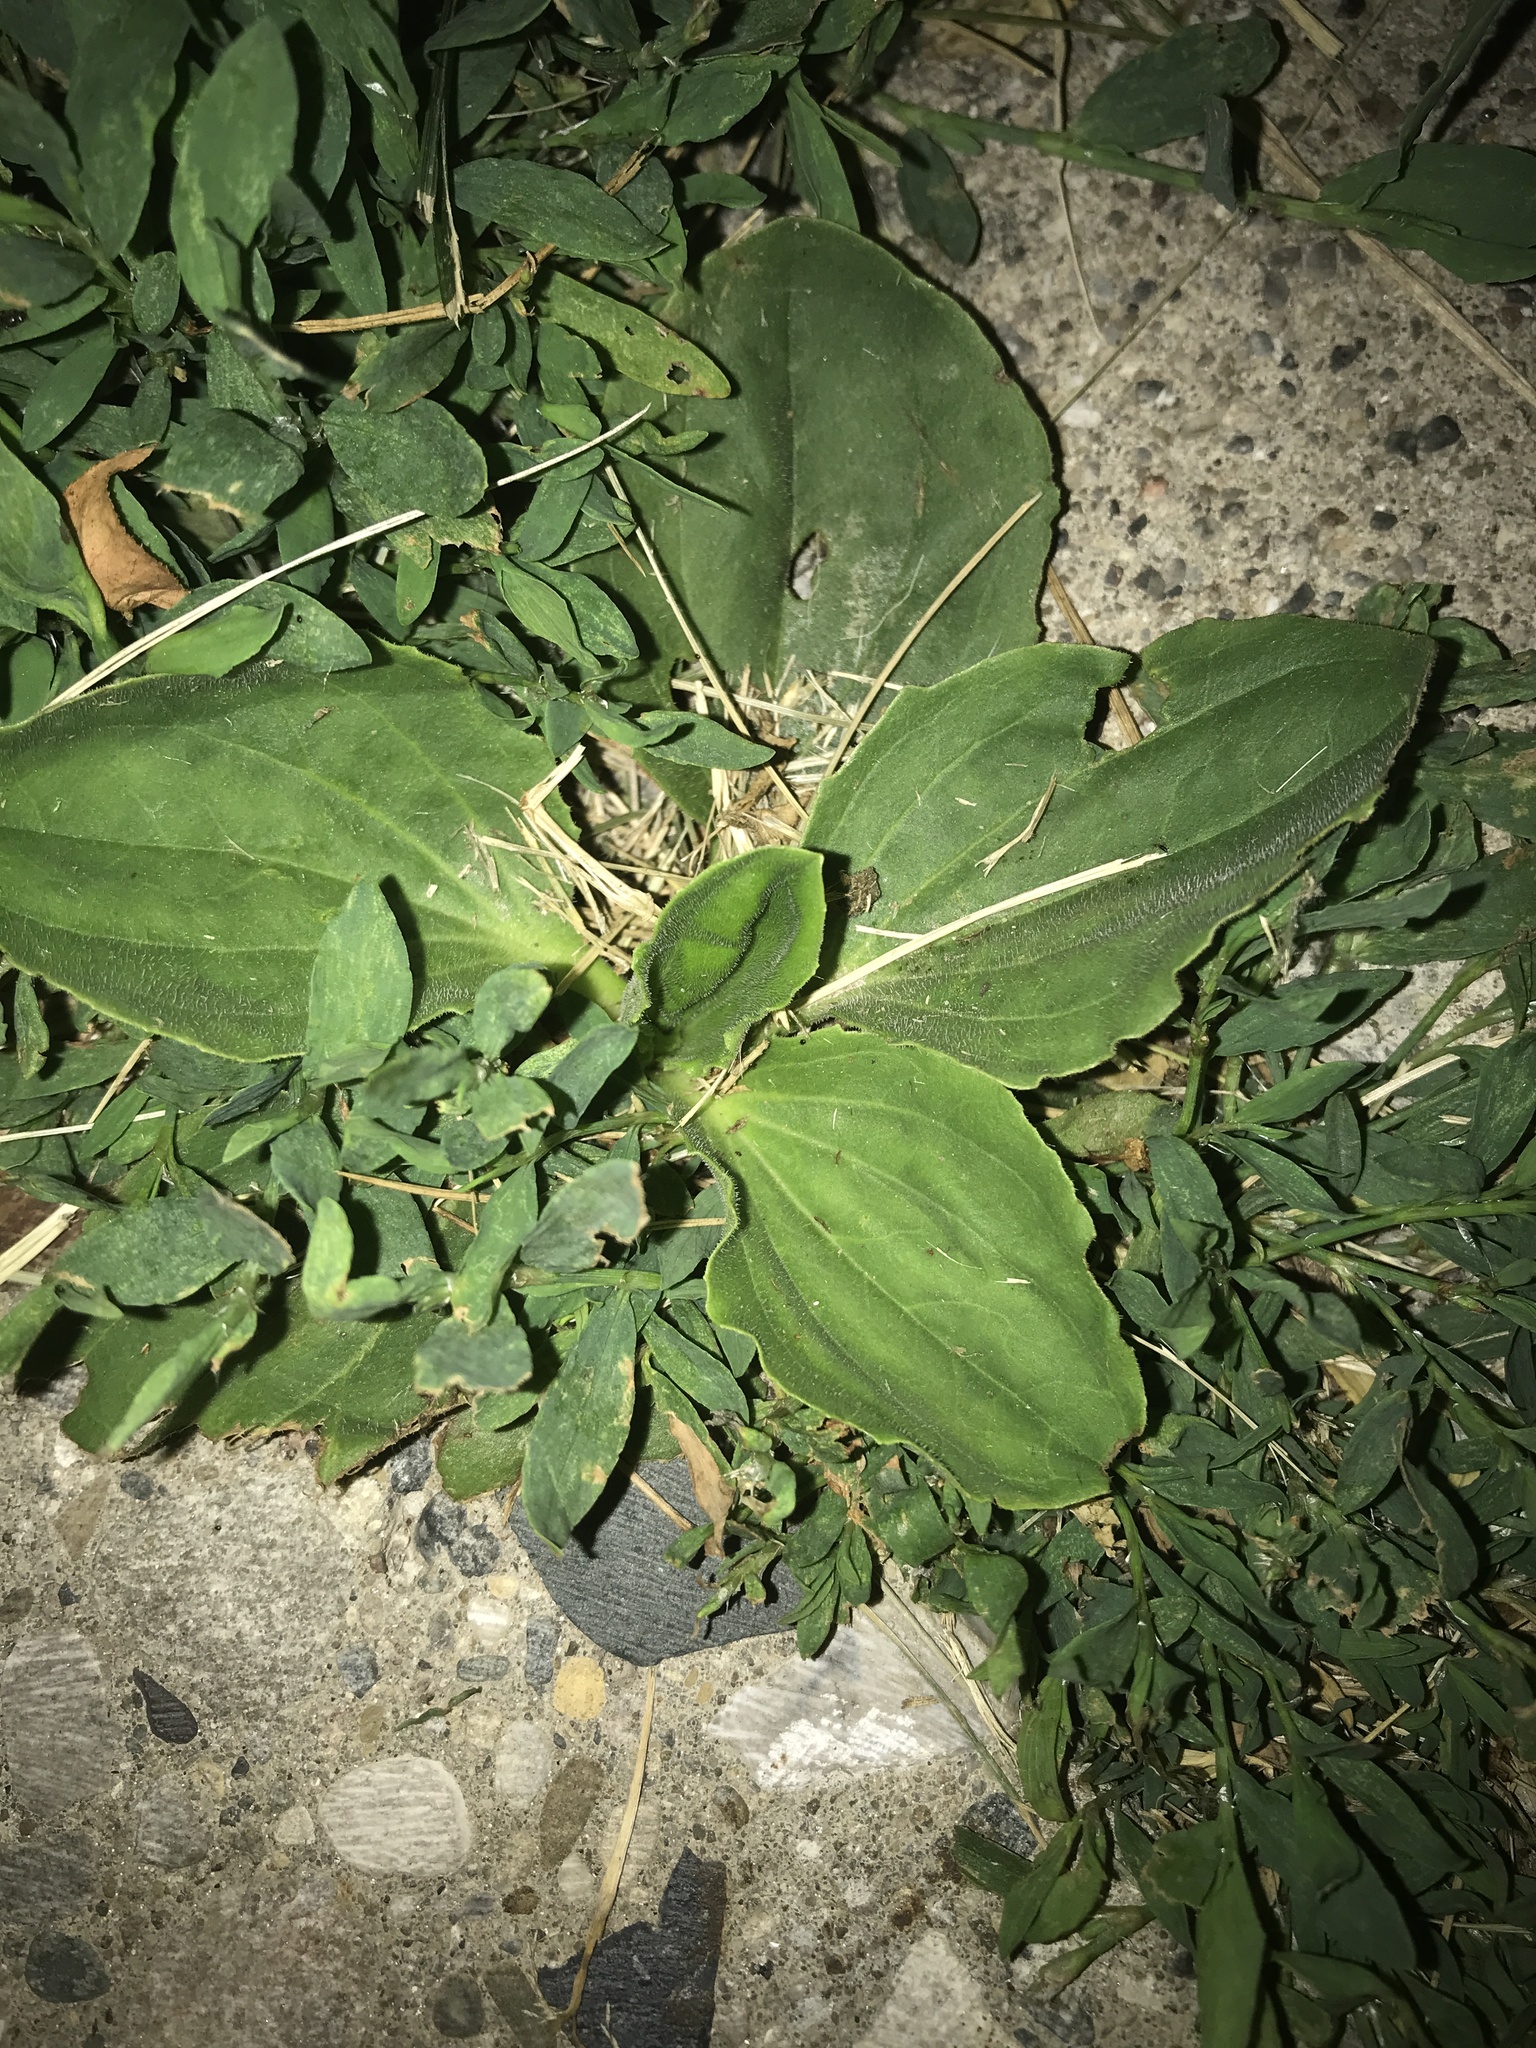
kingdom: Plantae
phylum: Tracheophyta
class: Magnoliopsida
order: Lamiales
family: Plantaginaceae
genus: Plantago
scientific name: Plantago major
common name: Common plantain
